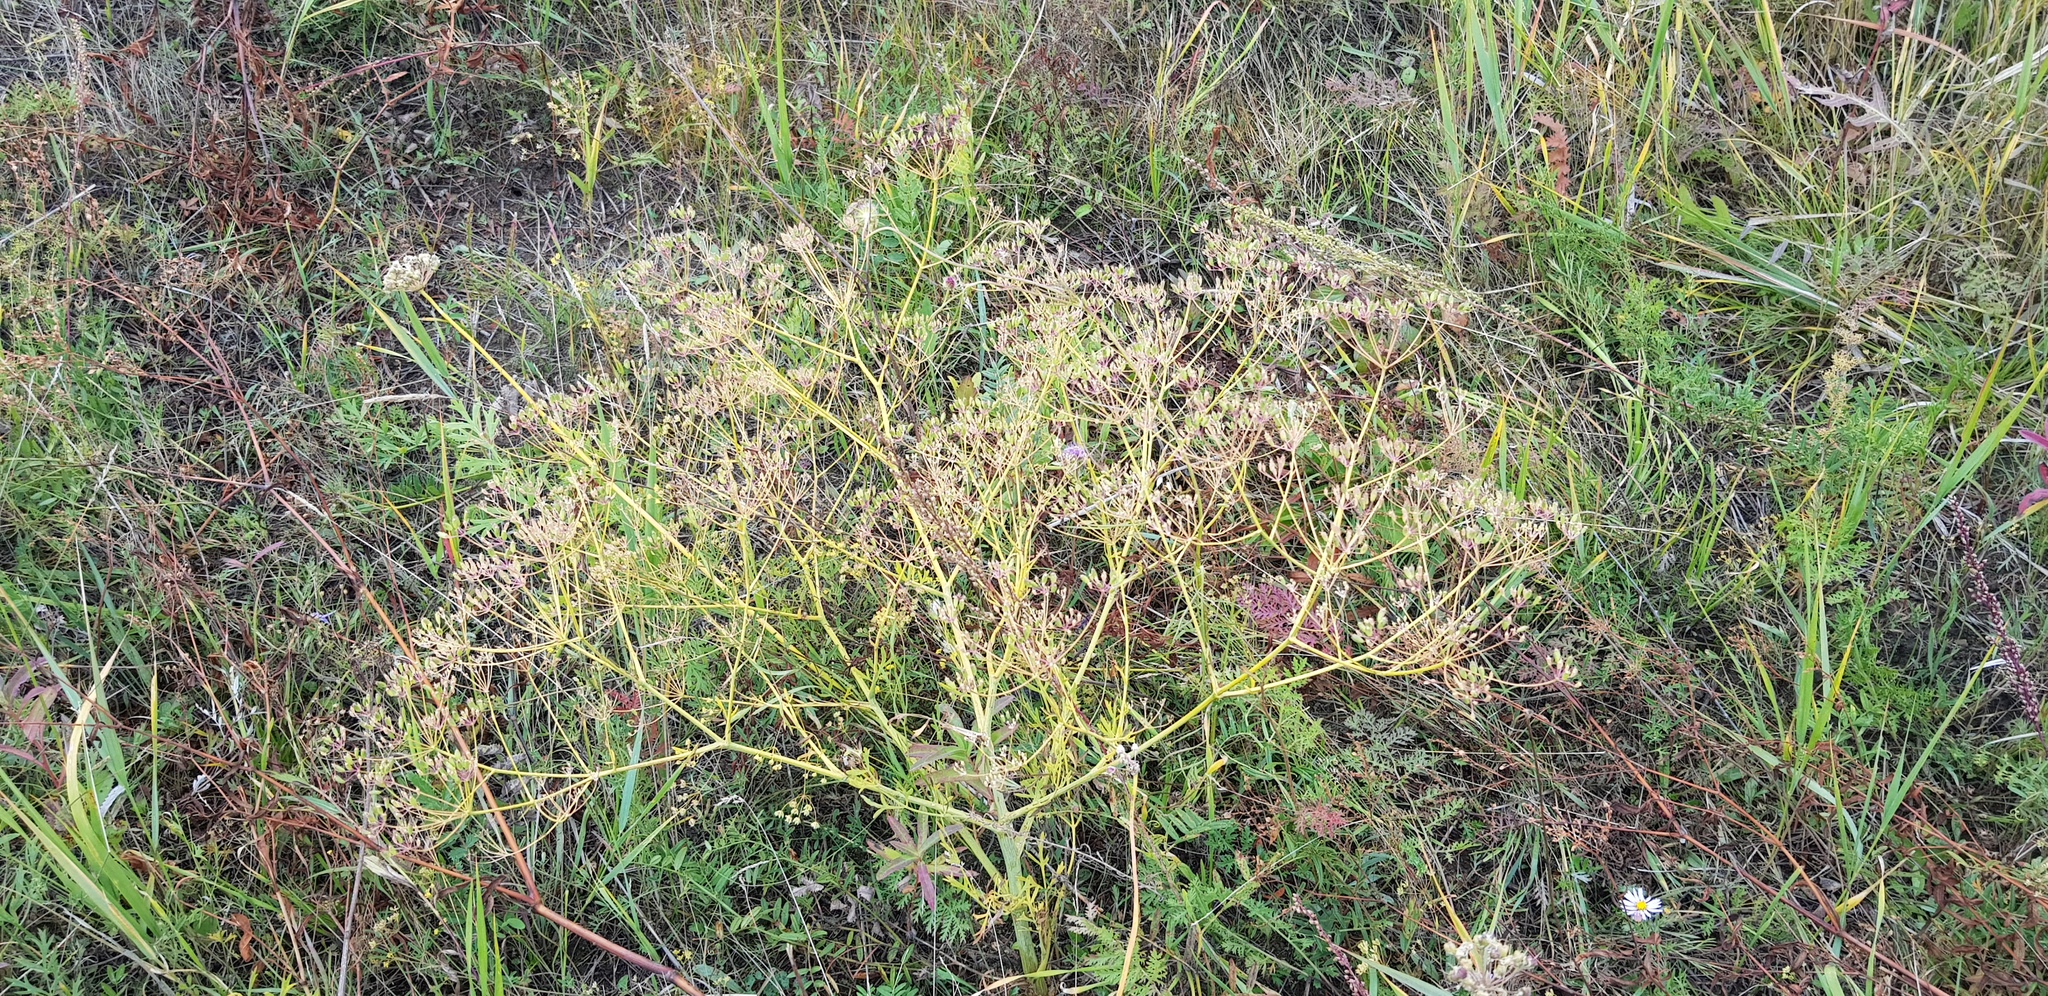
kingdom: Plantae
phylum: Tracheophyta
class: Magnoliopsida
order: Apiales
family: Apiaceae
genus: Saposhnikovia
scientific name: Saposhnikovia divaricata
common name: Siler
